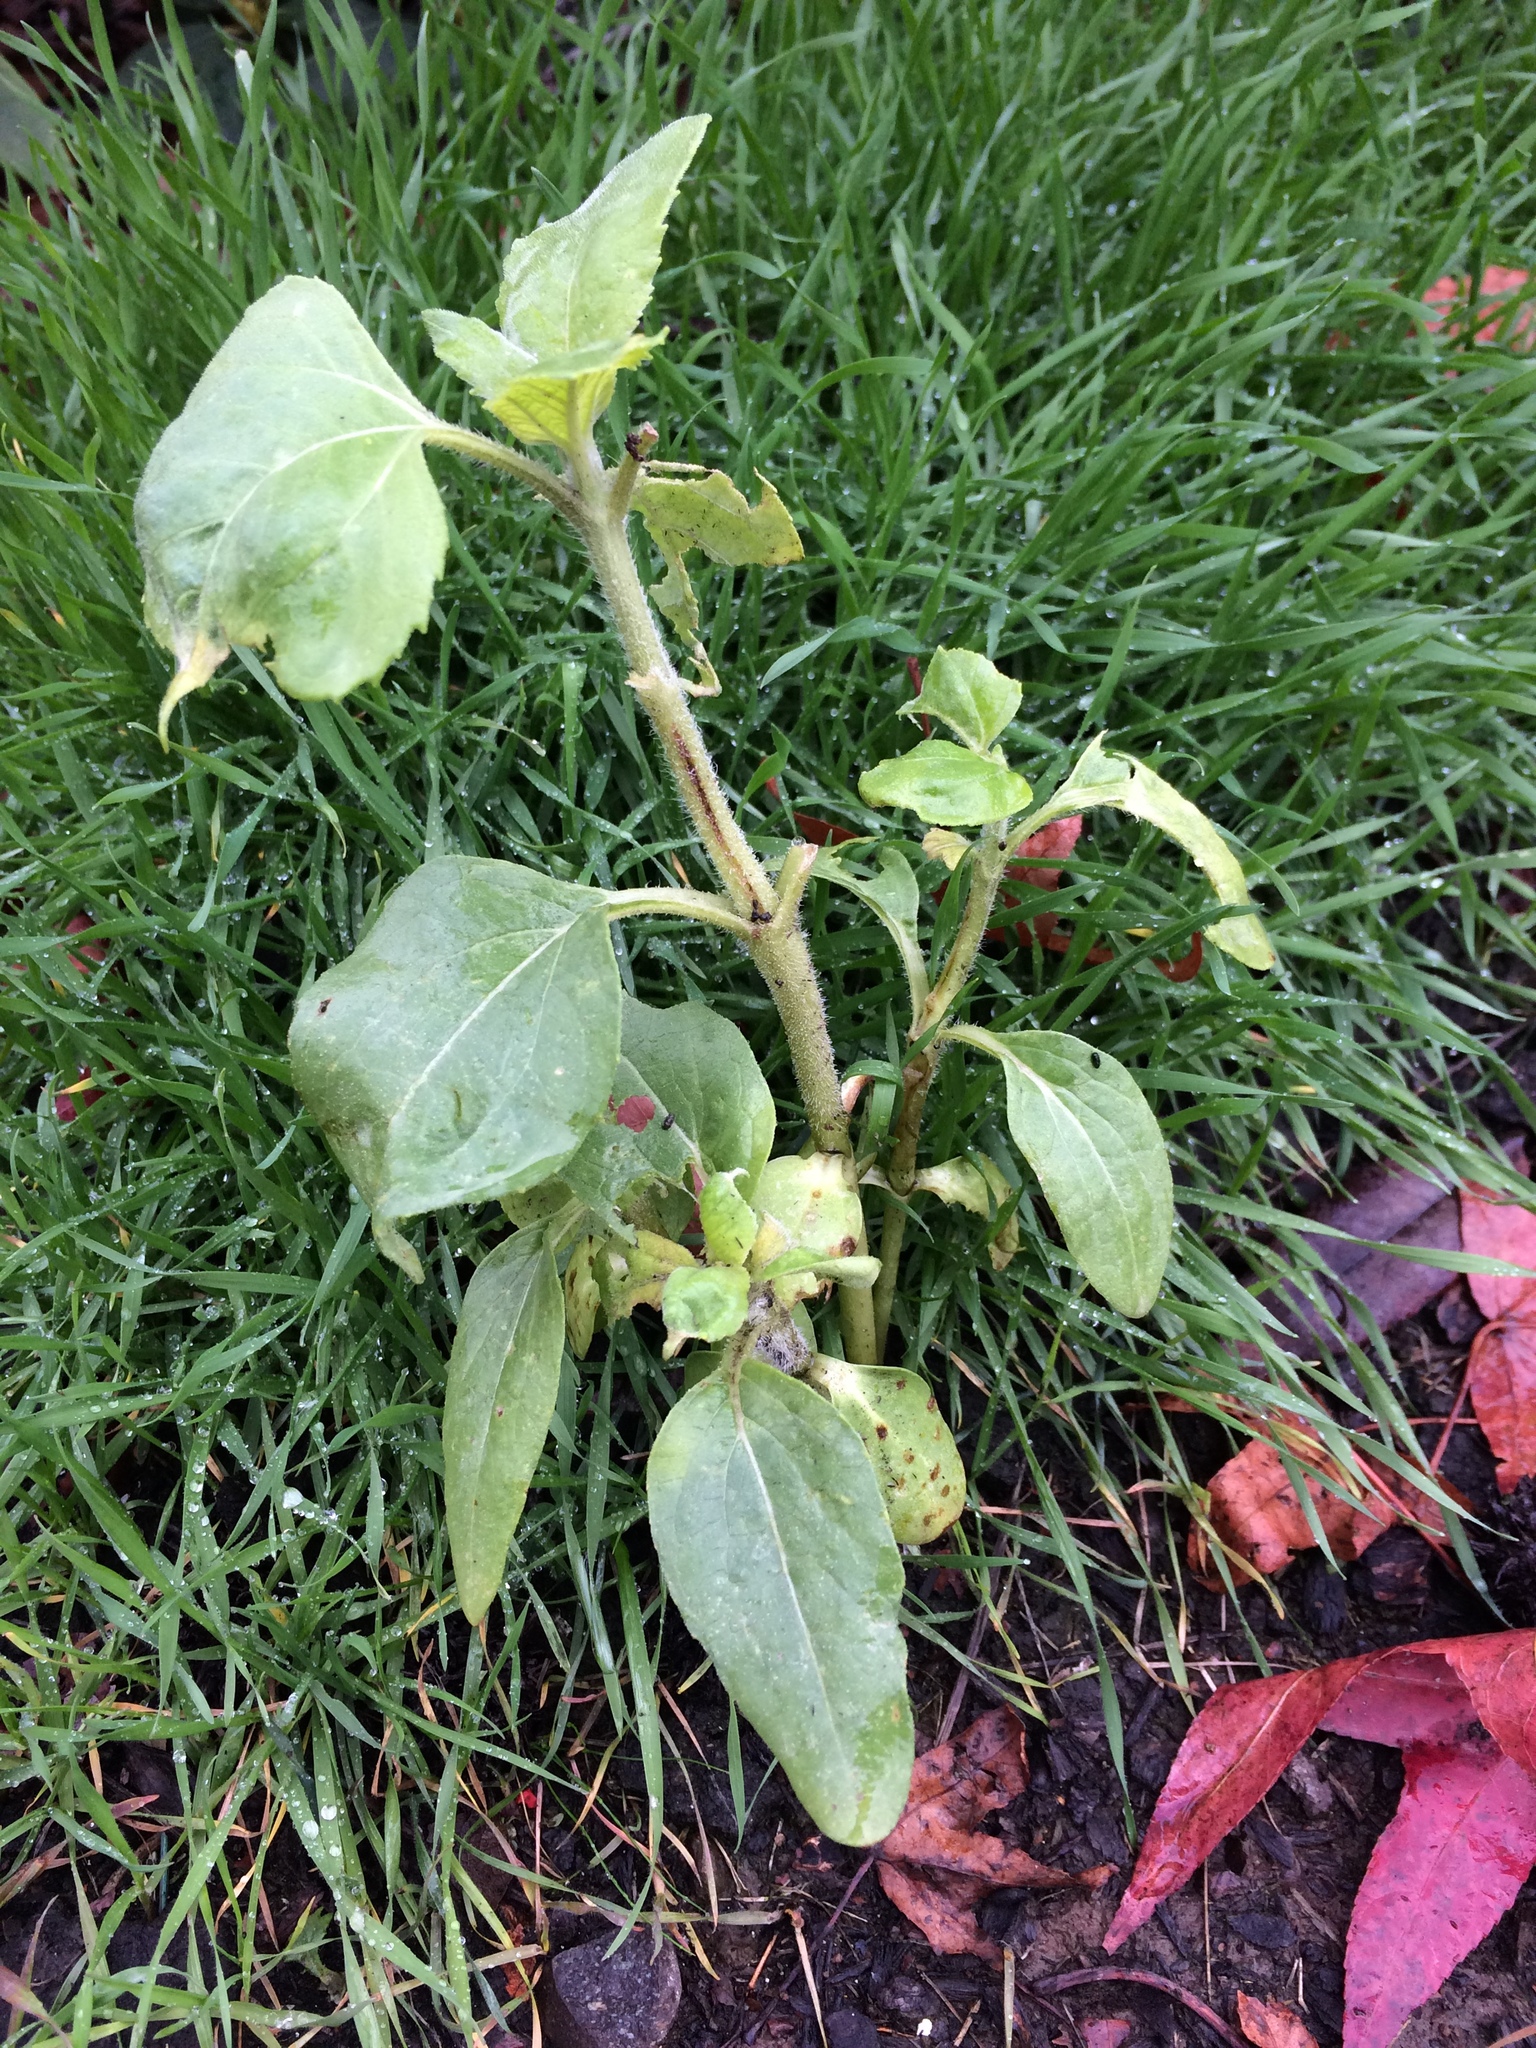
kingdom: Plantae
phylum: Tracheophyta
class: Magnoliopsida
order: Asterales
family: Asteraceae
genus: Helianthus
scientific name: Helianthus annuus
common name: Sunflower
